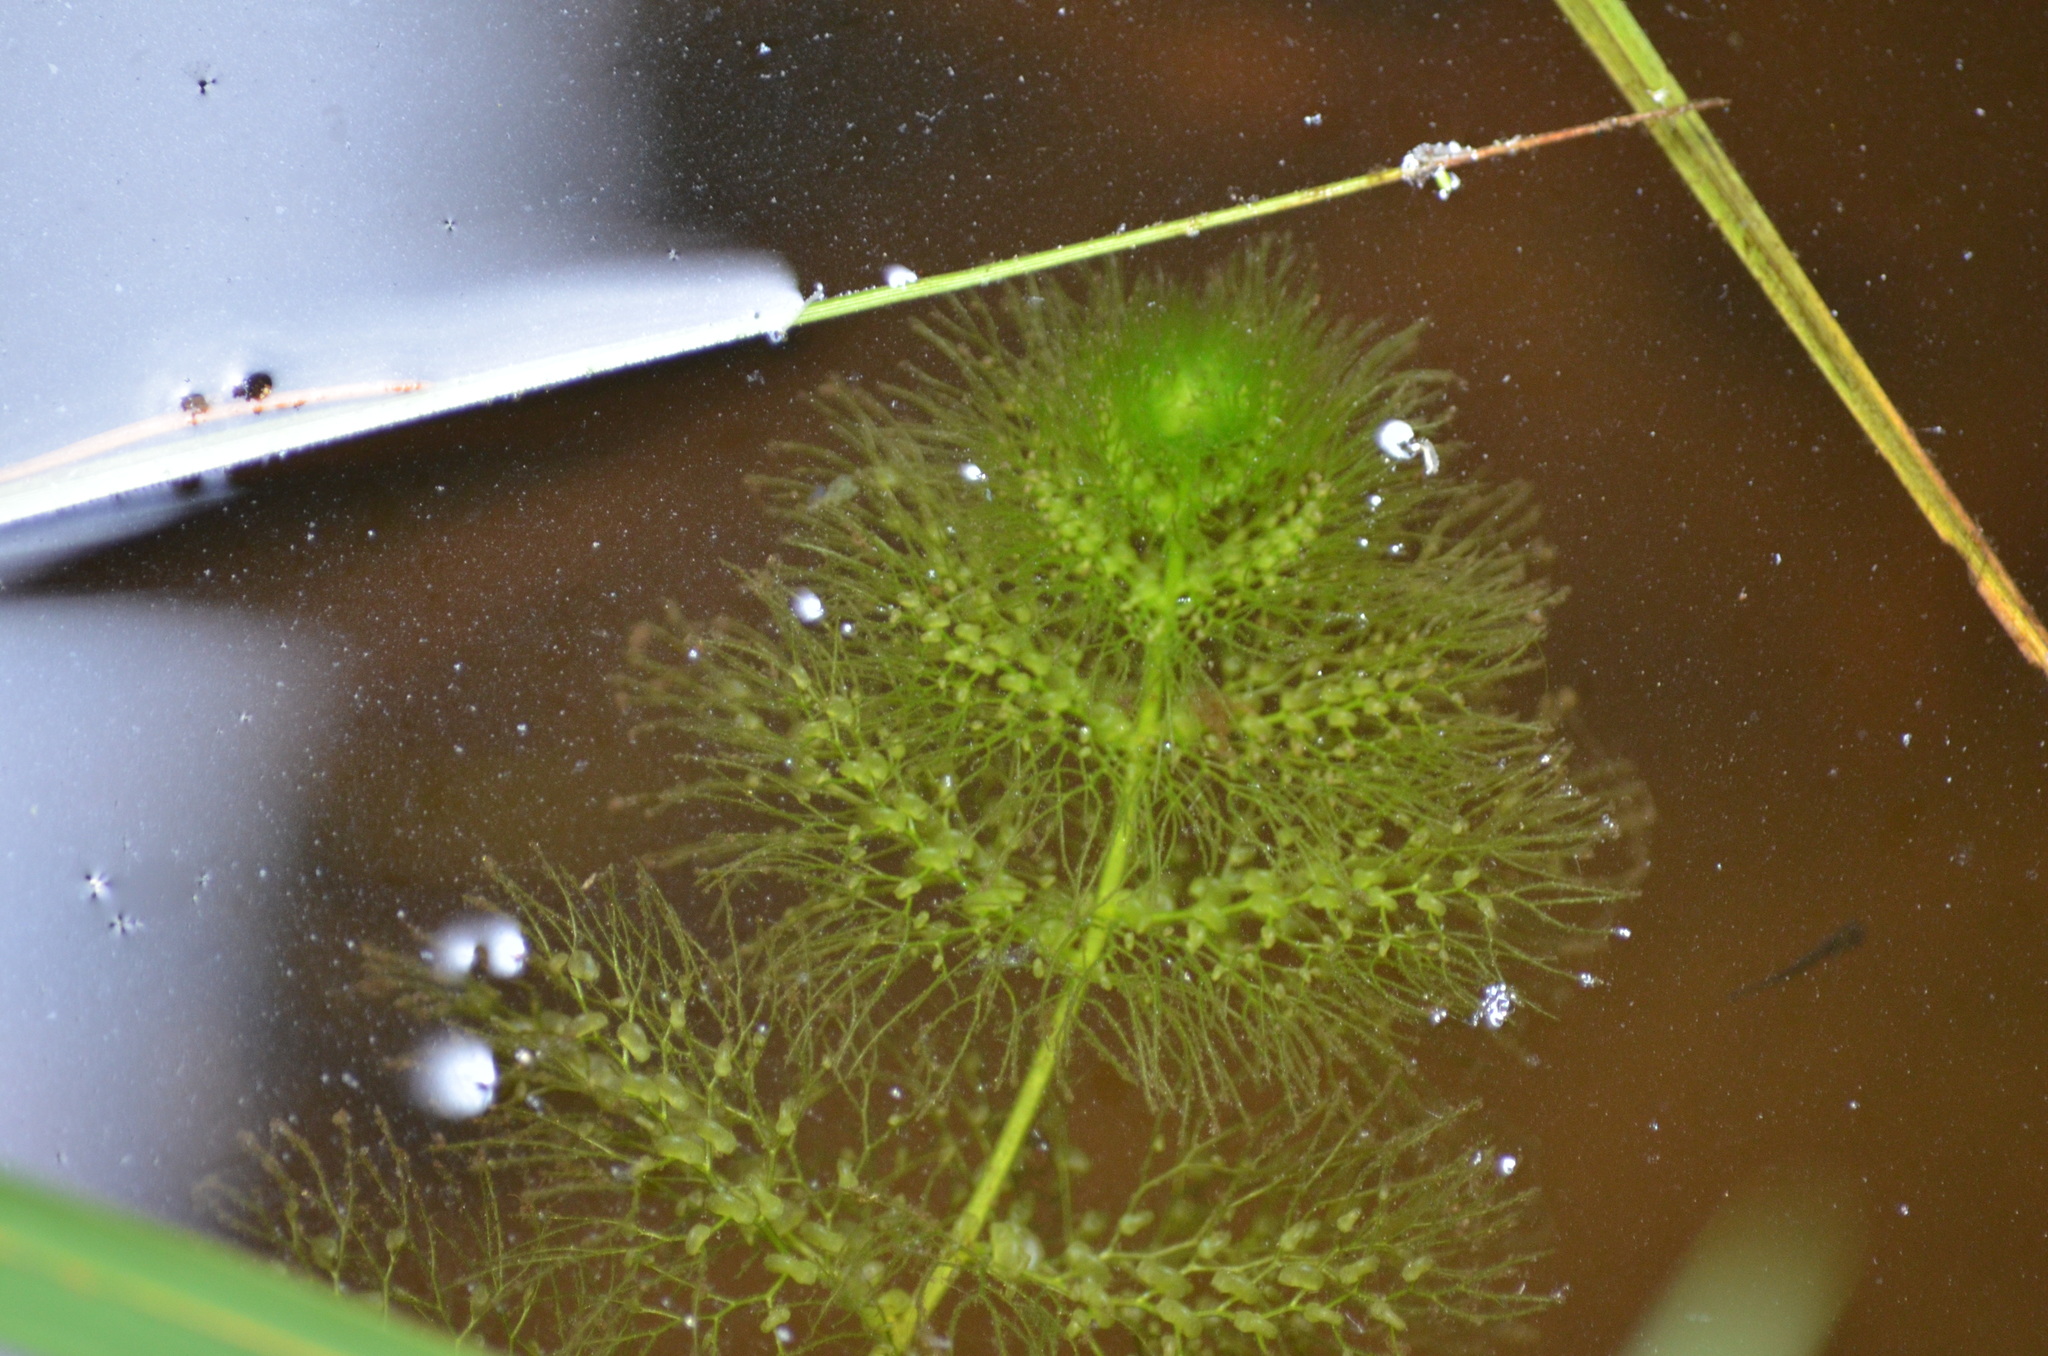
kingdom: Plantae
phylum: Tracheophyta
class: Magnoliopsida
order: Lamiales
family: Lentibulariaceae
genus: Utricularia
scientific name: Utricularia macrorhiza
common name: Common bladderwort
